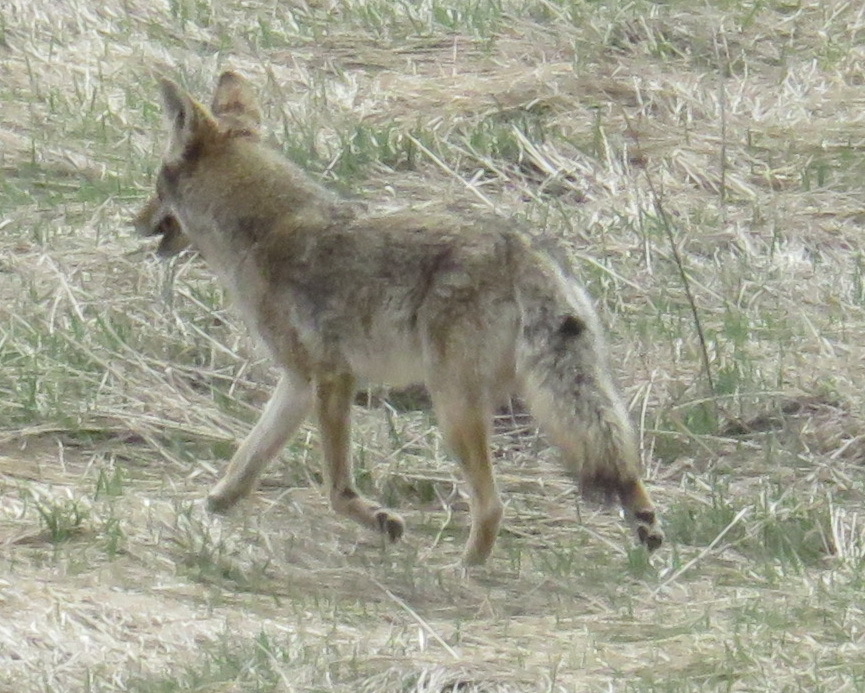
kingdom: Animalia
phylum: Chordata
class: Mammalia
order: Carnivora
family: Canidae
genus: Canis
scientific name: Canis latrans
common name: Coyote
